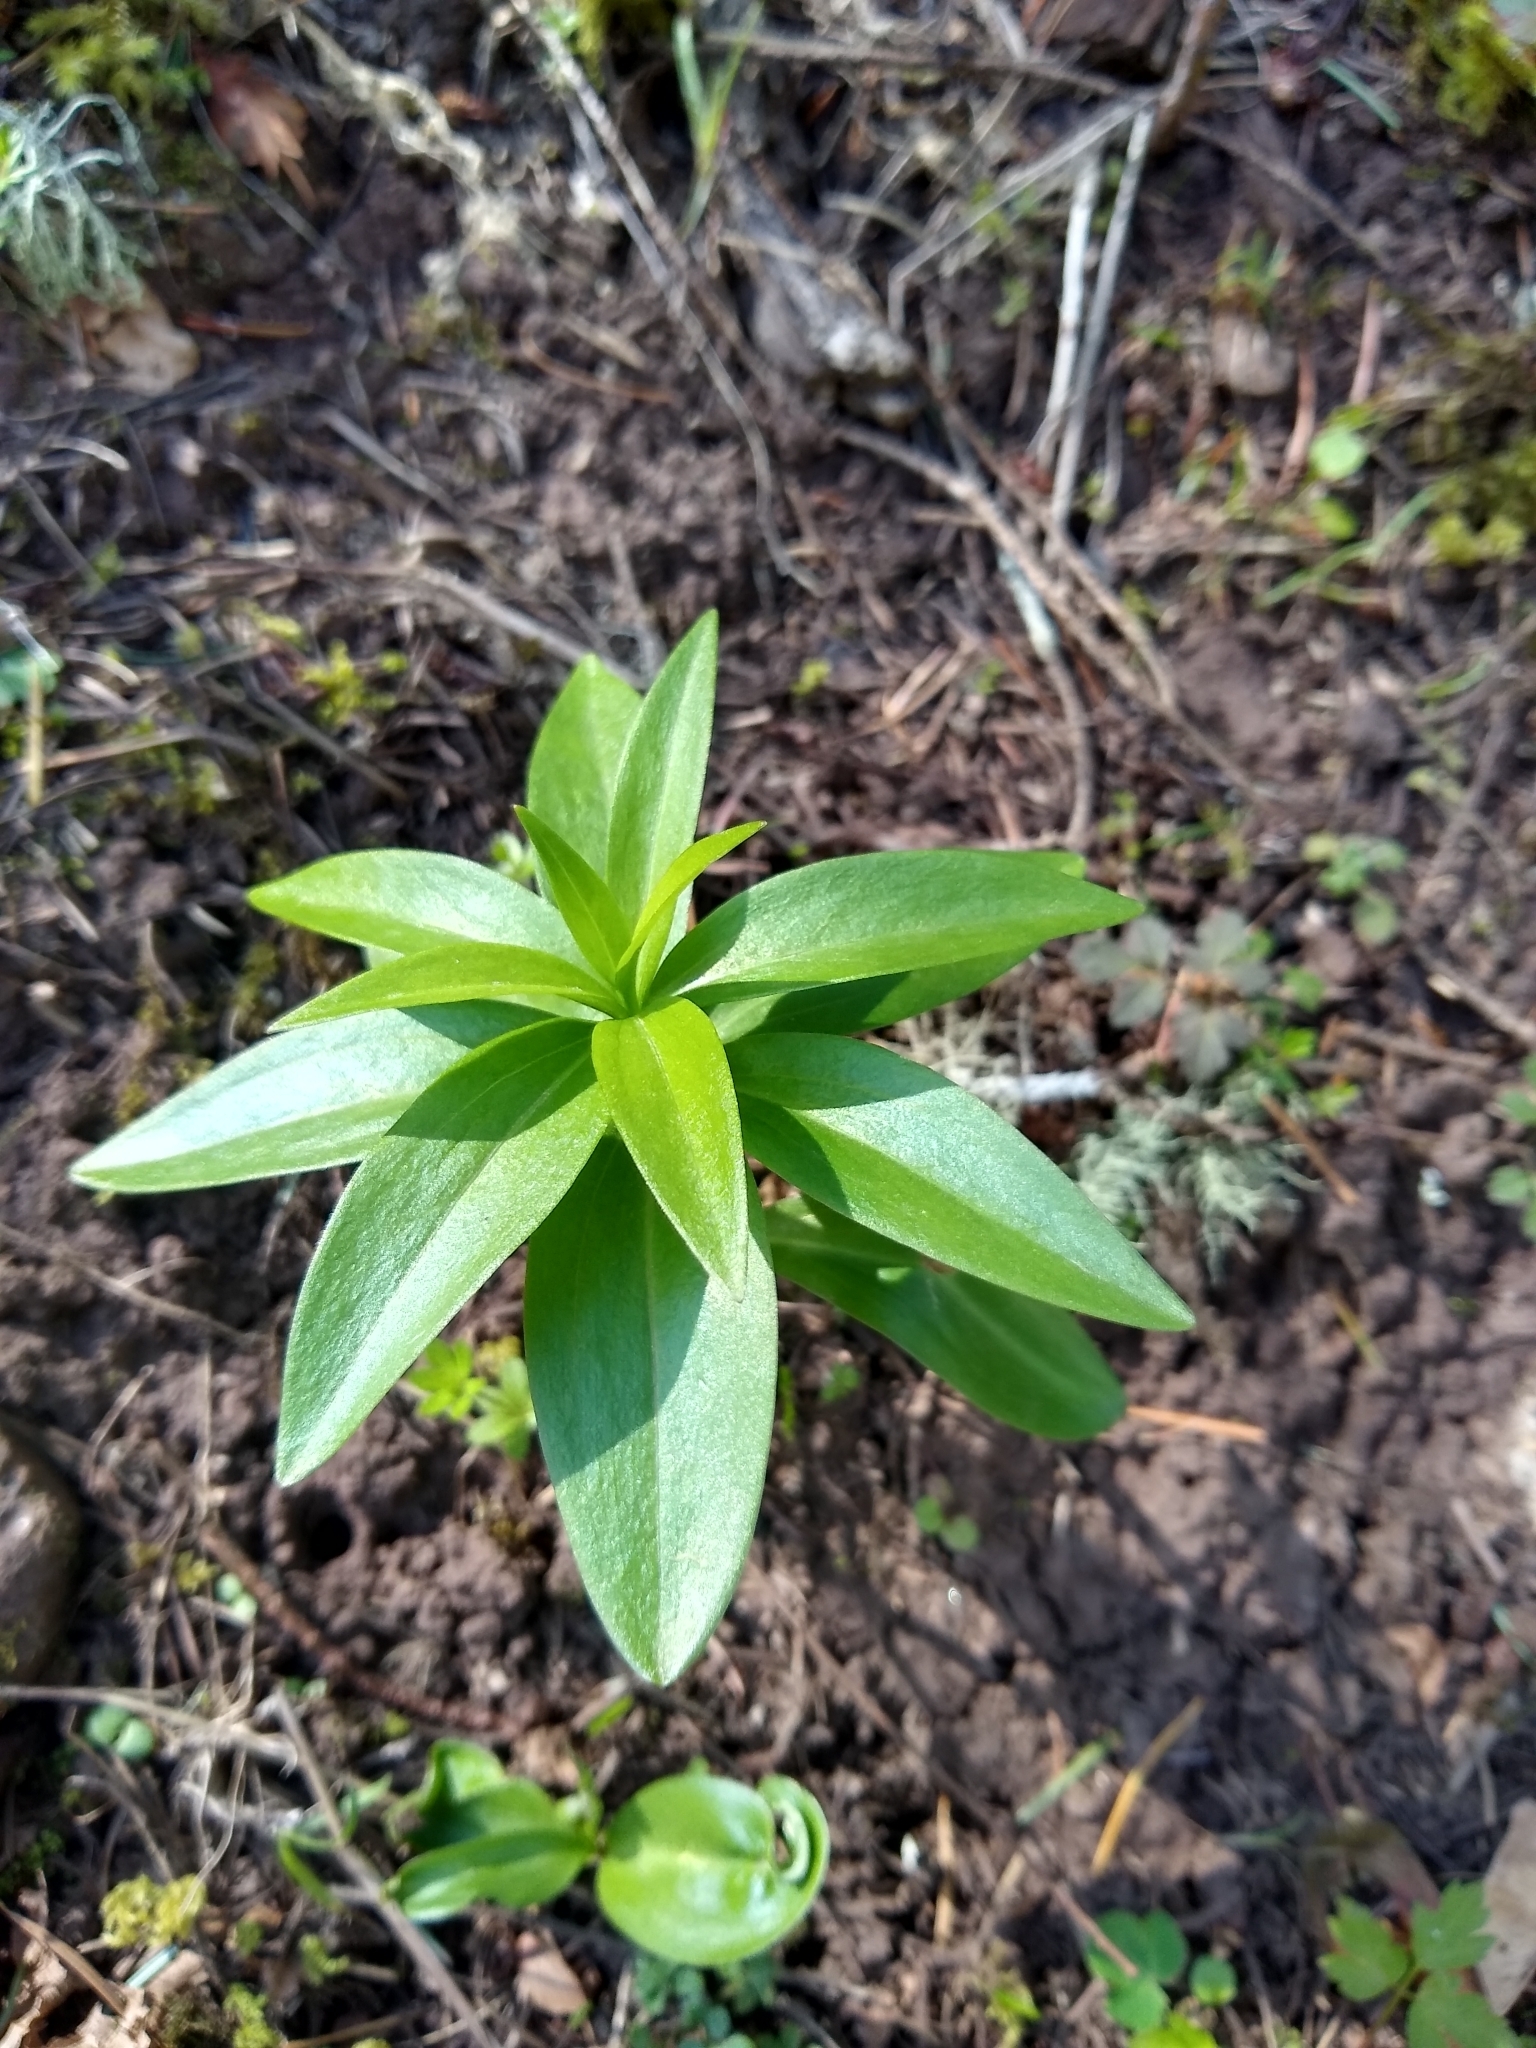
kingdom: Plantae
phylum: Tracheophyta
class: Liliopsida
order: Liliales
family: Liliaceae
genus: Lilium
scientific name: Lilium columbianum
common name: Columbia lily
